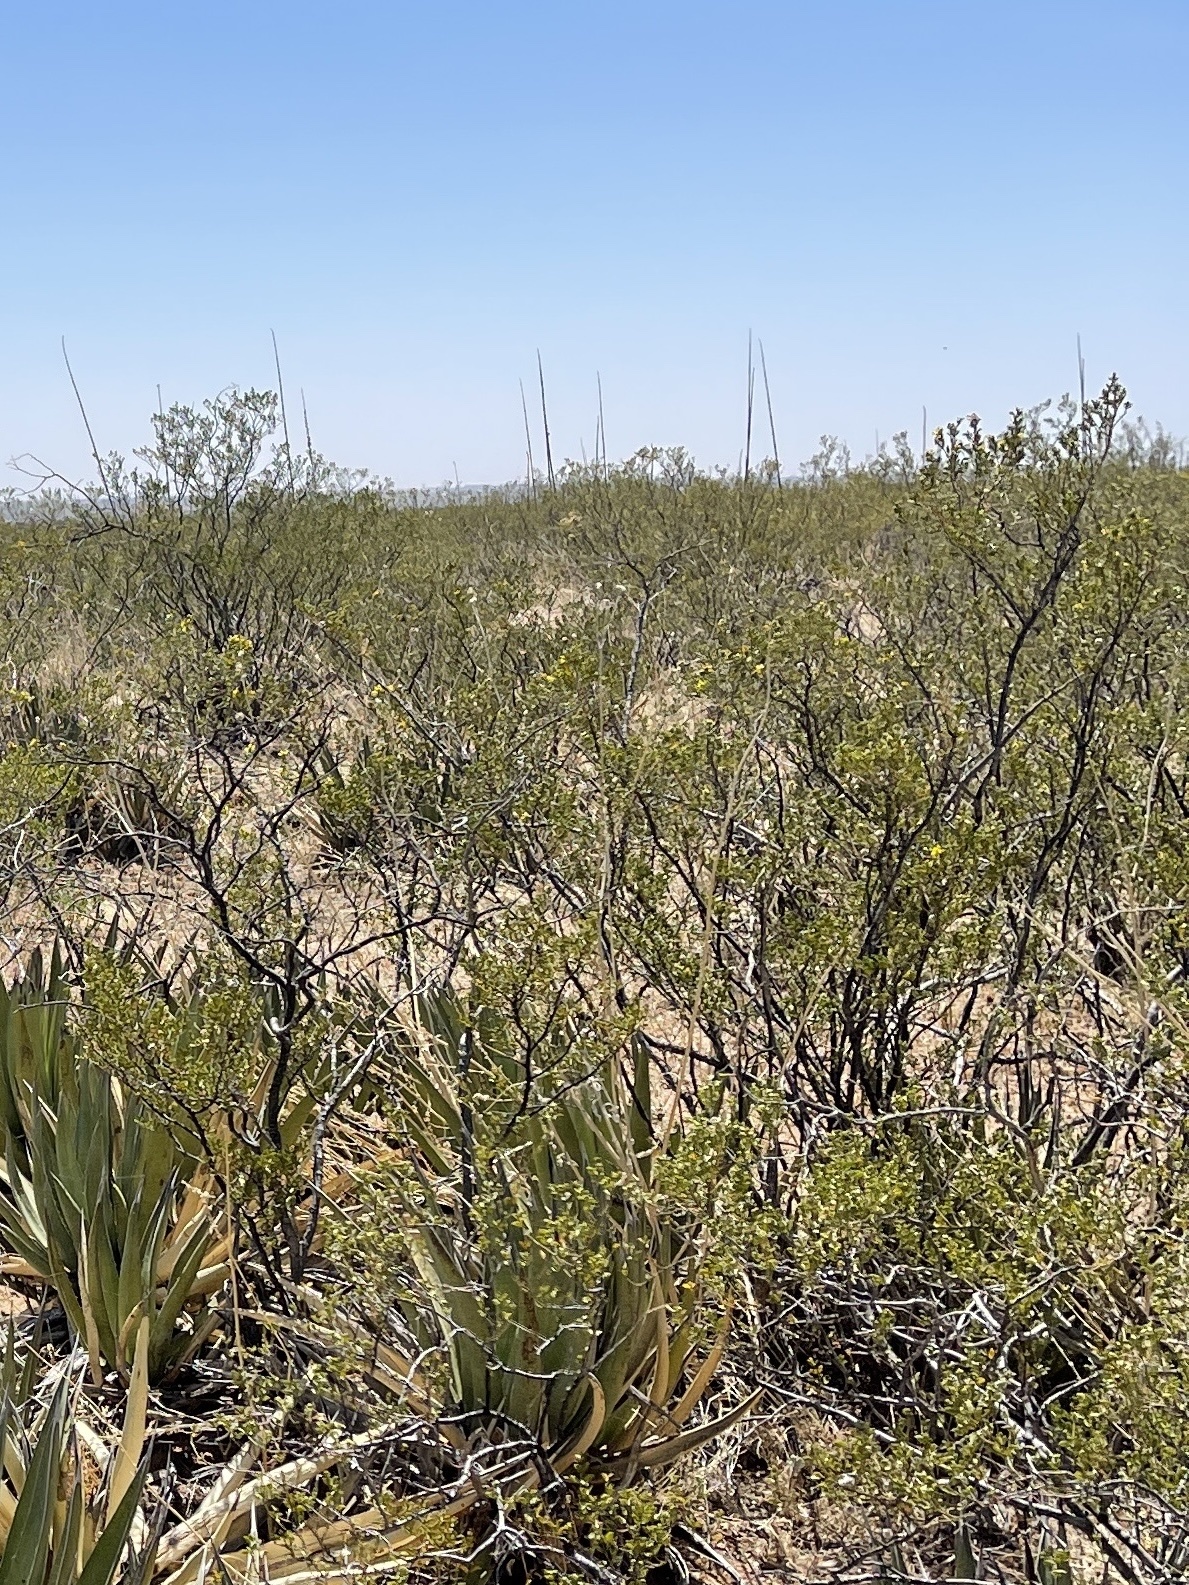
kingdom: Plantae
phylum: Tracheophyta
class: Magnoliopsida
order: Zygophyllales
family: Zygophyllaceae
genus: Larrea
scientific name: Larrea tridentata
